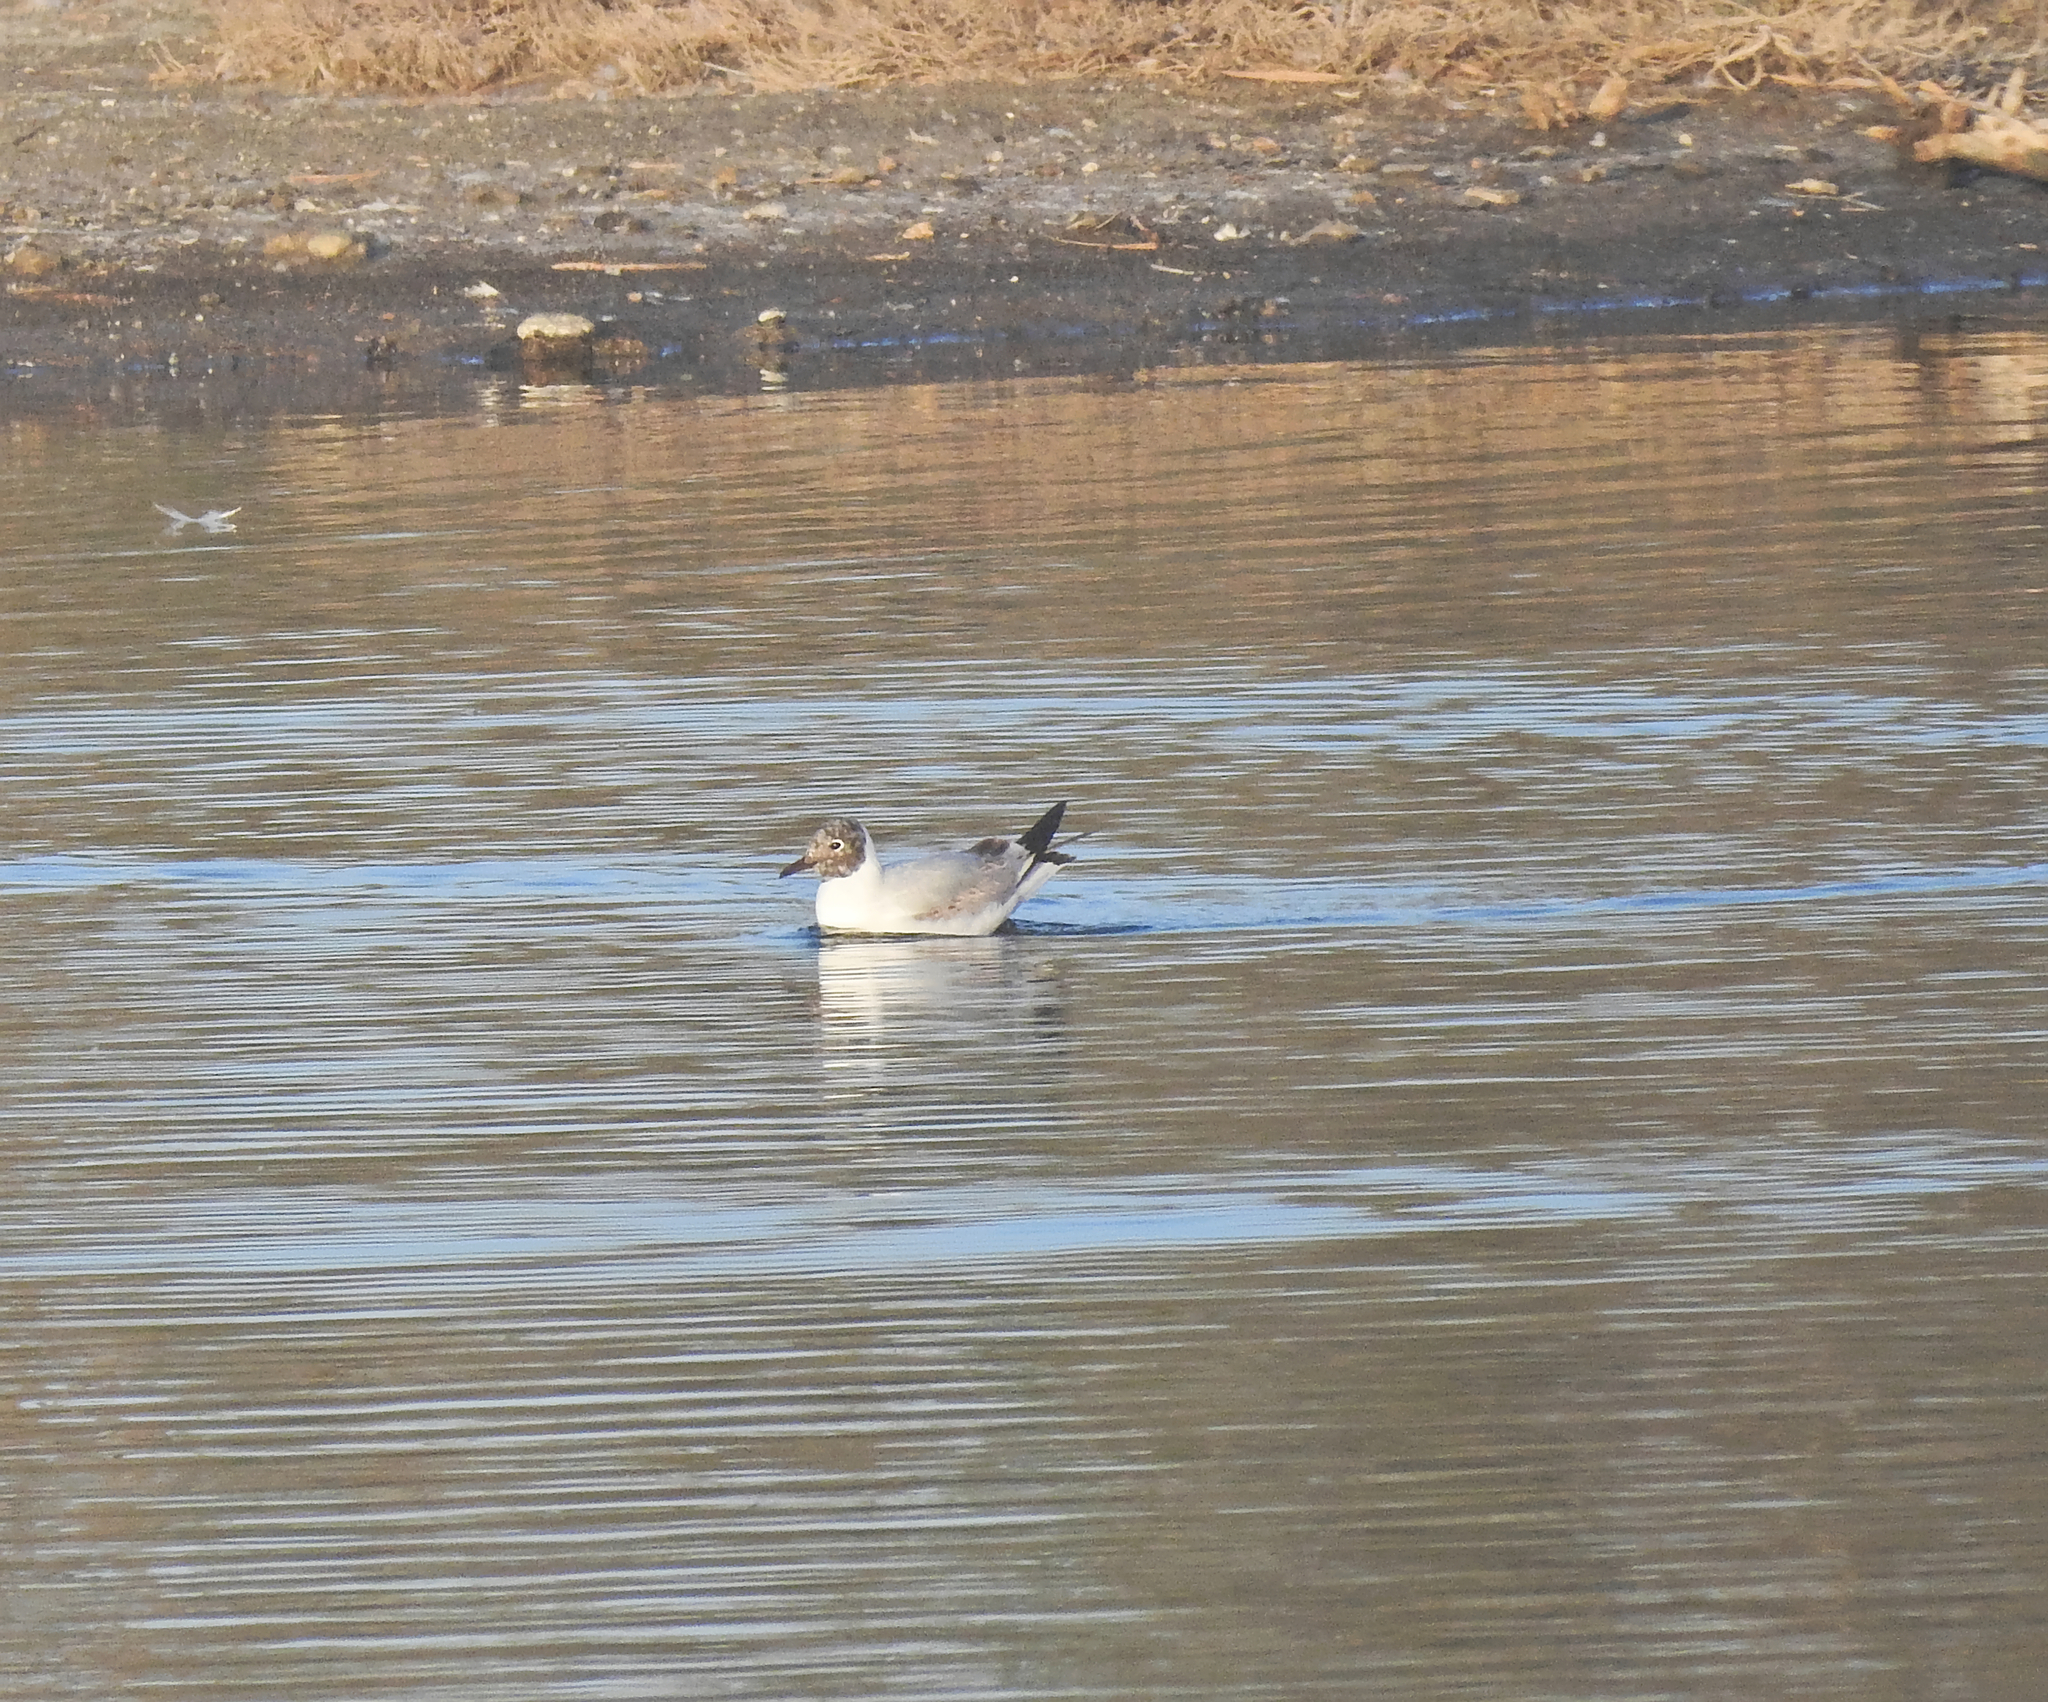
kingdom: Animalia
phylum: Chordata
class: Aves
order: Charadriiformes
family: Laridae
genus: Chroicocephalus
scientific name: Chroicocephalus ridibundus
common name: Black-headed gull
